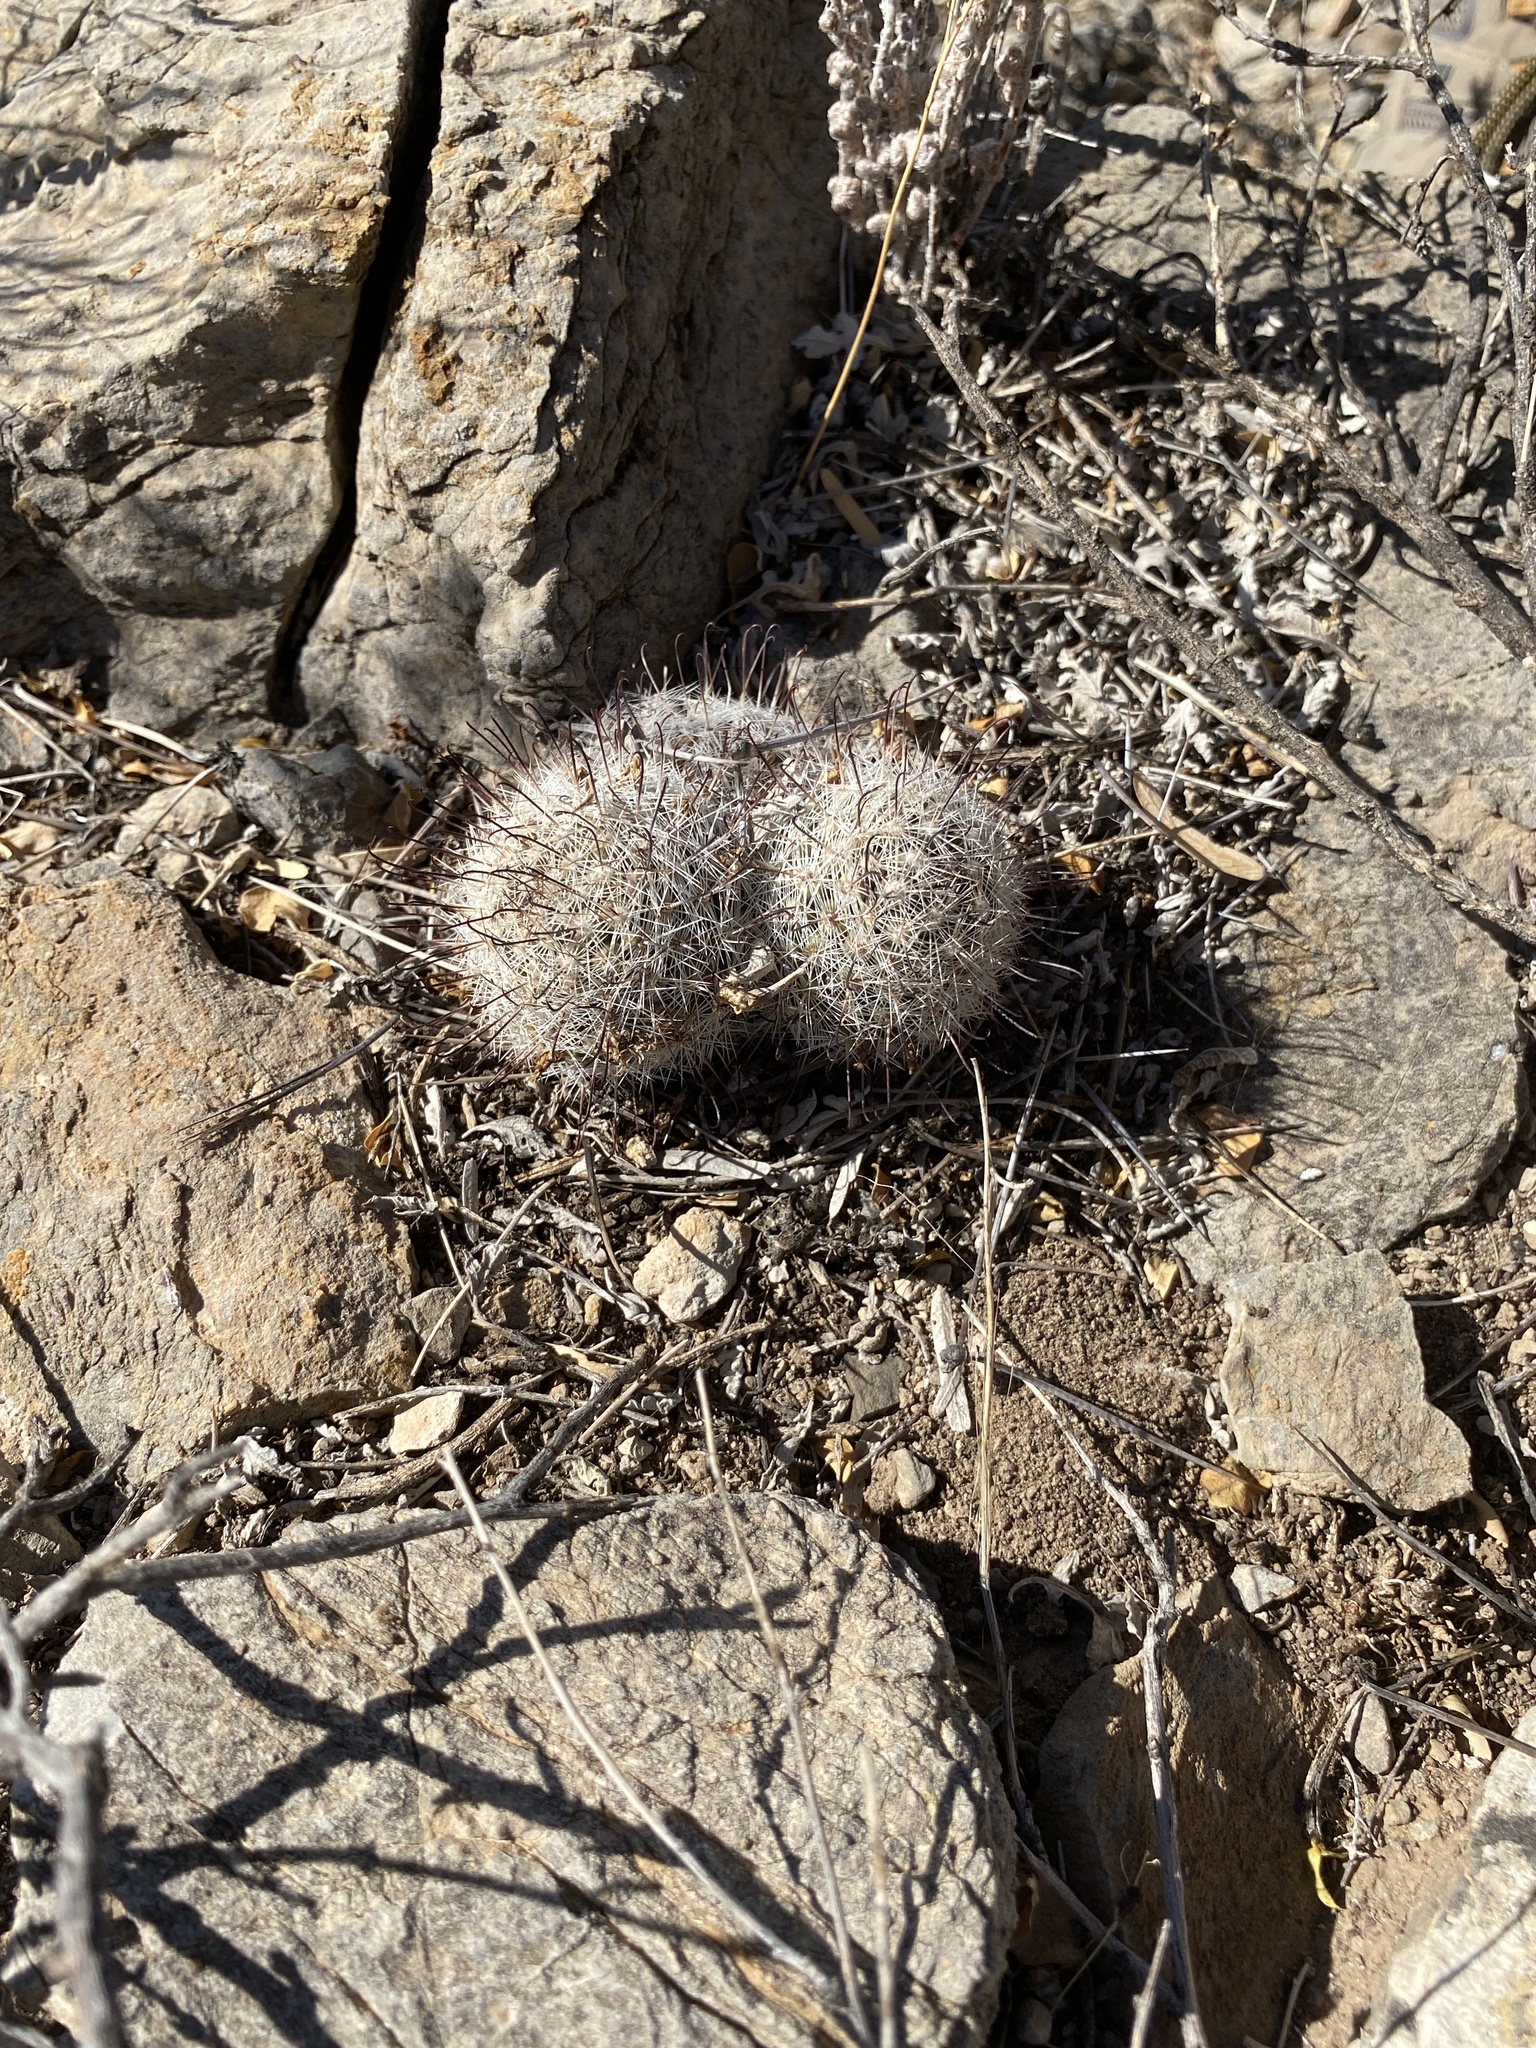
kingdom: Plantae
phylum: Tracheophyta
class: Magnoliopsida
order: Caryophyllales
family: Cactaceae
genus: Cochemiea
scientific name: Cochemiea grahamii
